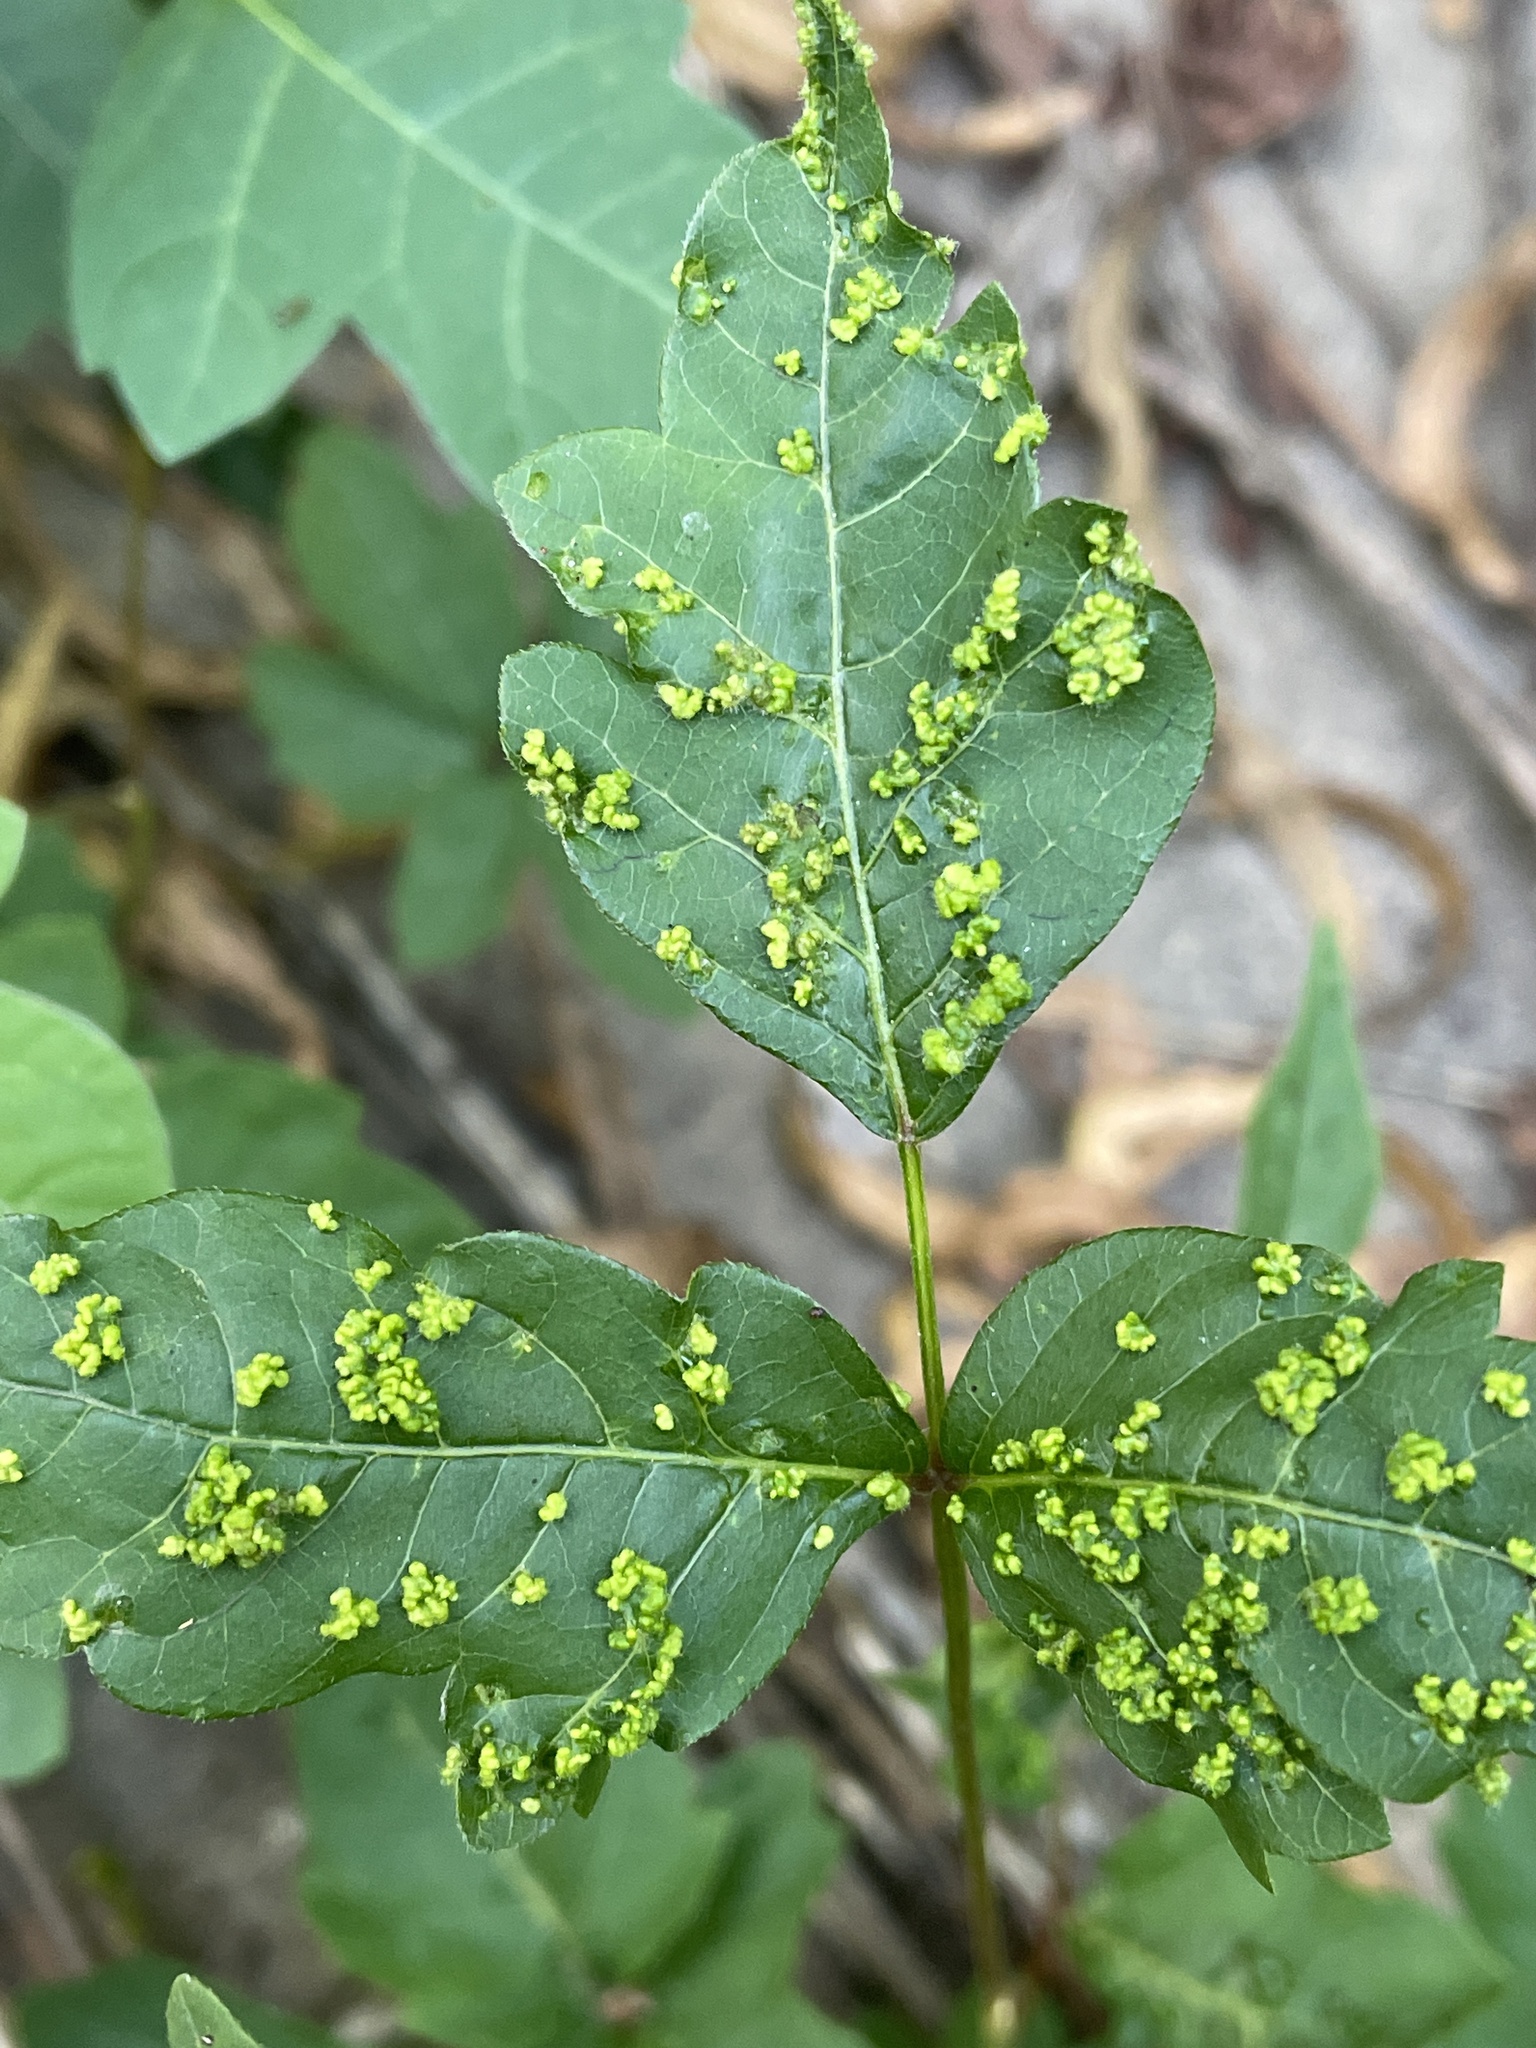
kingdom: Animalia
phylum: Arthropoda
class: Arachnida
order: Trombidiformes
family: Eriophyidae
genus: Aculops
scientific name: Aculops
